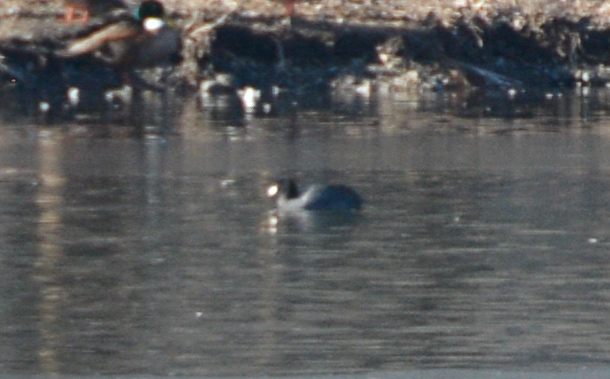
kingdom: Animalia
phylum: Chordata
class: Aves
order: Gruiformes
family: Rallidae
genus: Fulica
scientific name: Fulica americana
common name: American coot
